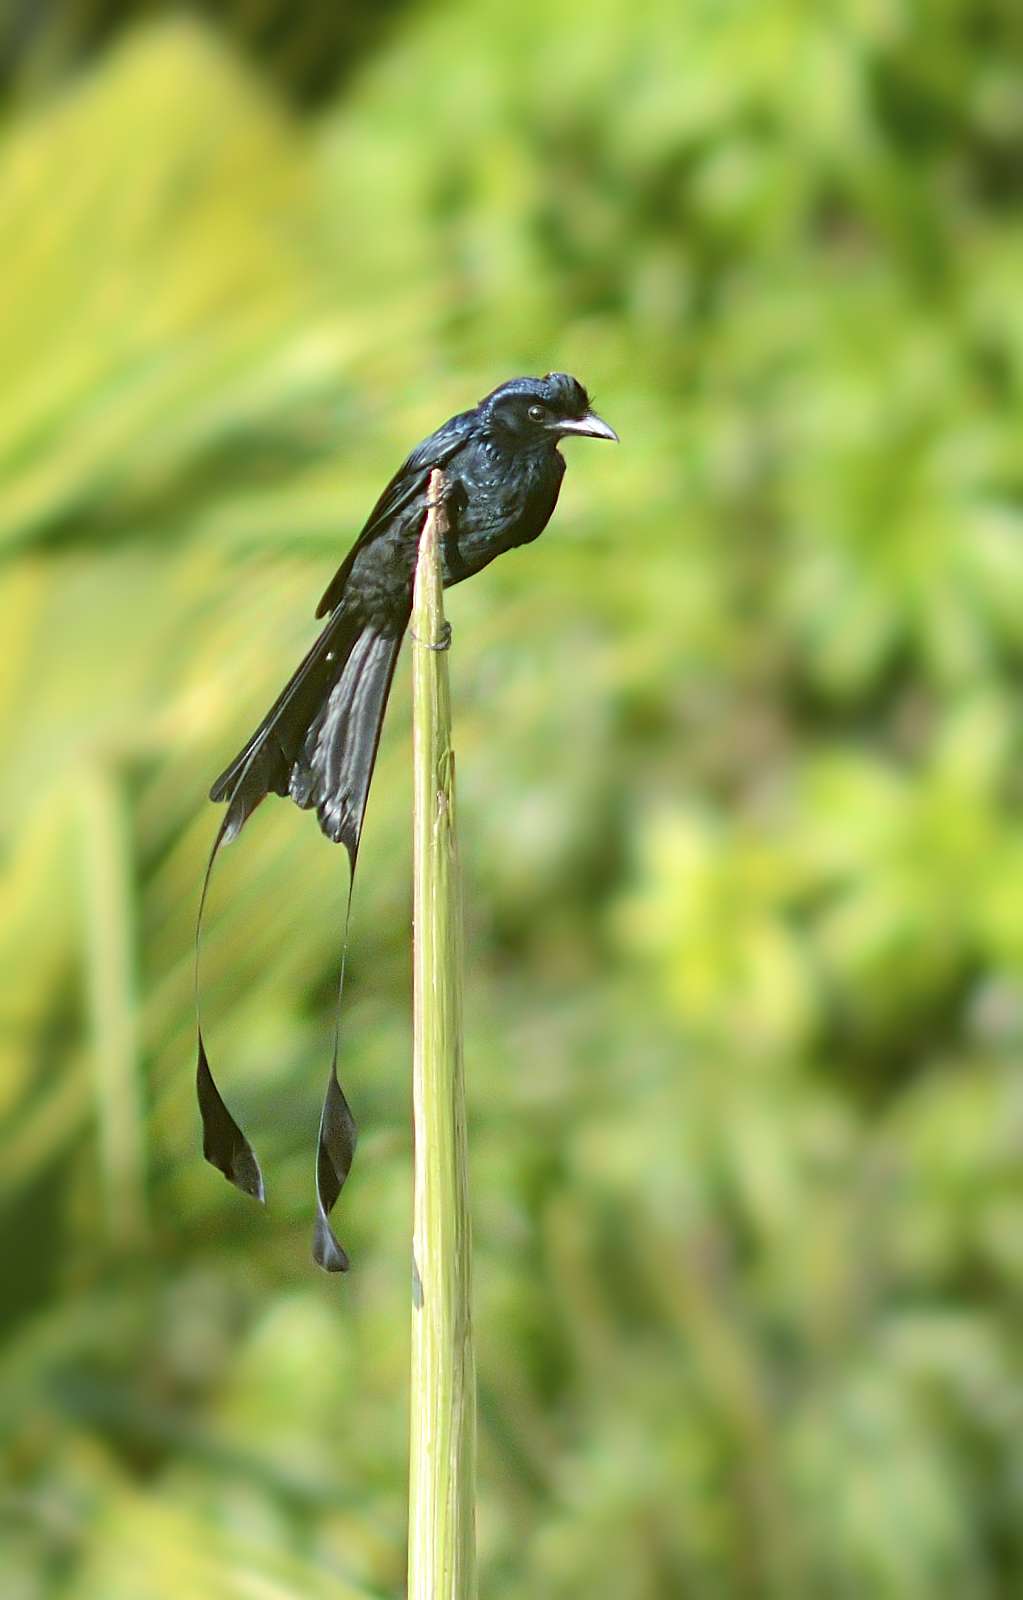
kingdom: Animalia
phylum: Chordata
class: Aves
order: Passeriformes
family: Dicruridae
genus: Dicrurus
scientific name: Dicrurus paradiseus
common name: Greater racket-tailed drongo
